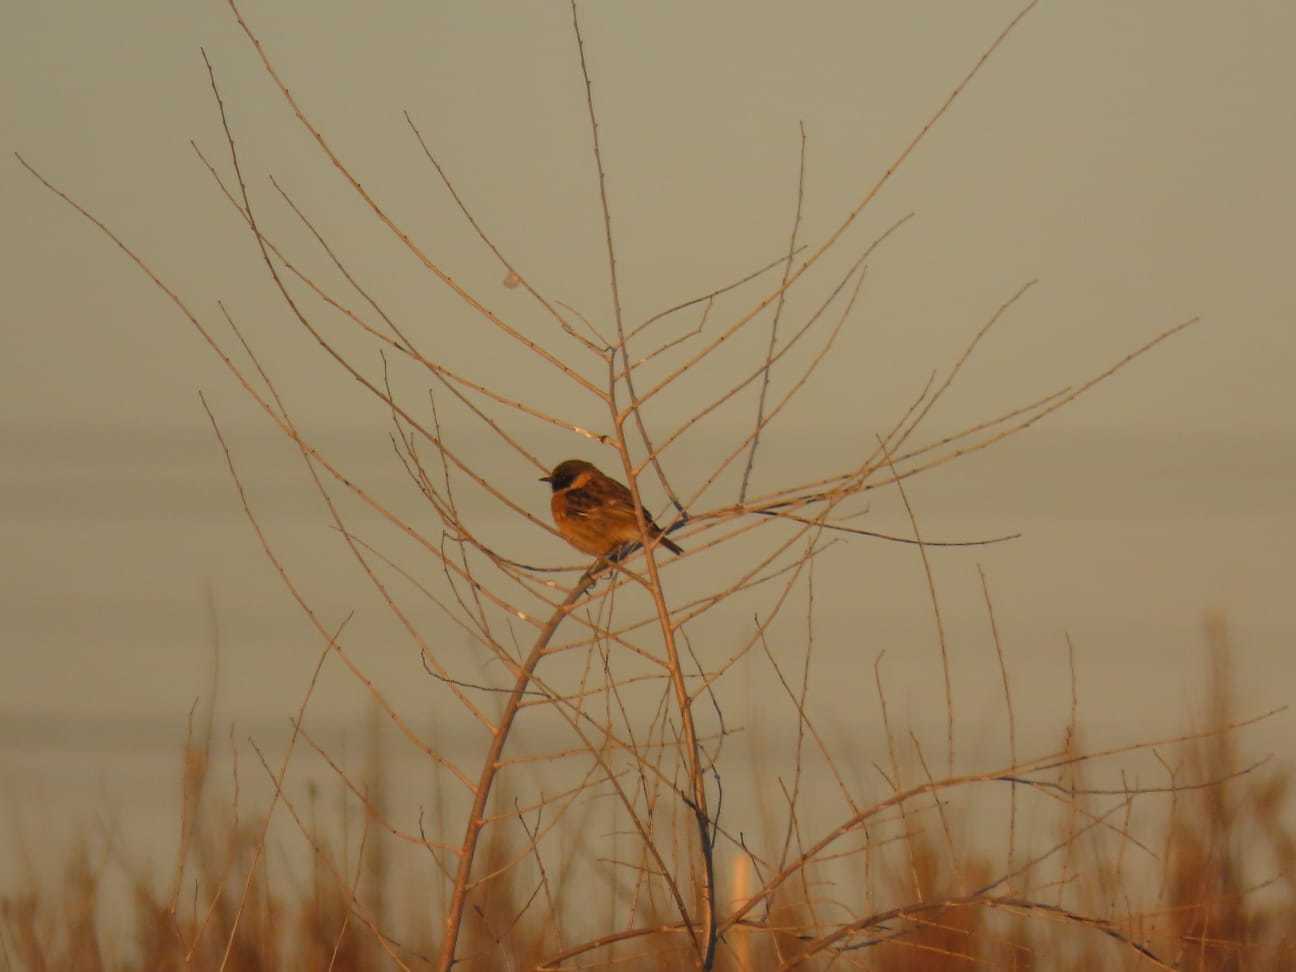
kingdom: Animalia
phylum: Chordata
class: Aves
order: Passeriformes
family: Muscicapidae
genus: Saxicola
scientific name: Saxicola rubicola
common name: European stonechat
